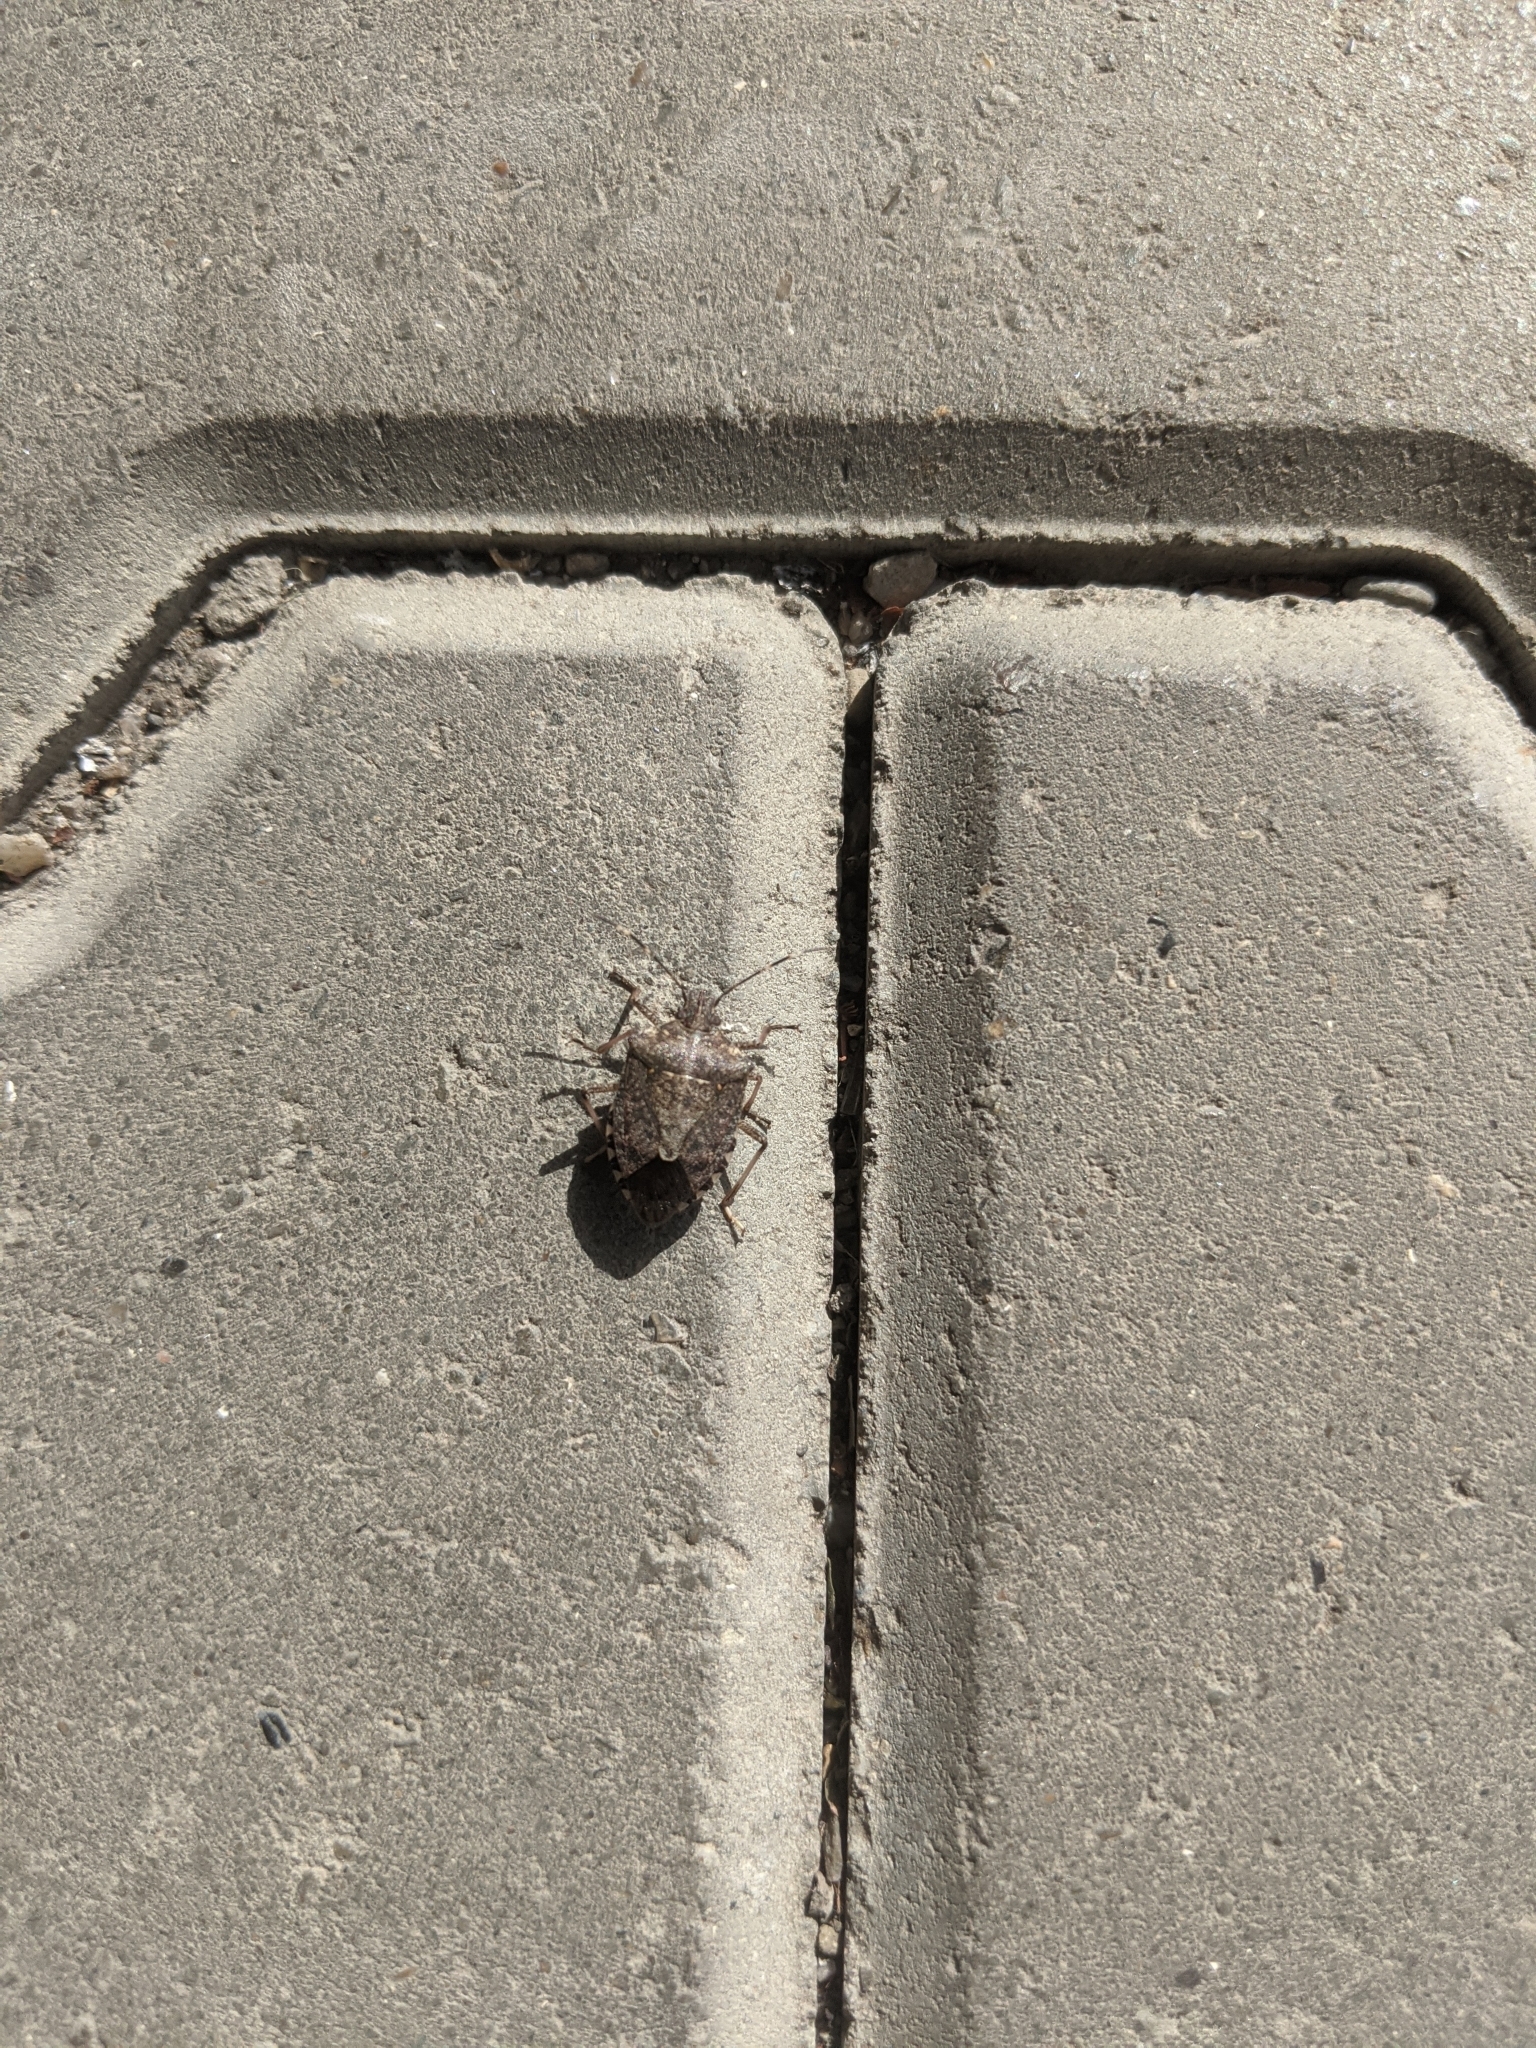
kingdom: Animalia
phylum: Arthropoda
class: Insecta
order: Hemiptera
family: Pentatomidae
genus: Halyomorpha
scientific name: Halyomorpha halys
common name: Brown marmorated stink bug
